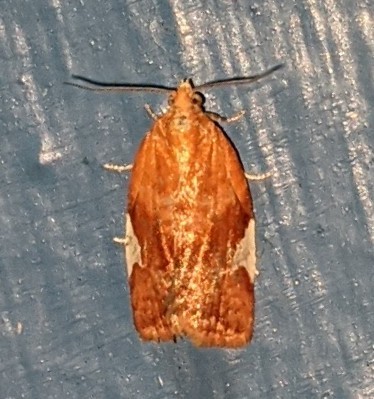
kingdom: Animalia
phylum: Arthropoda
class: Insecta
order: Lepidoptera
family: Tortricidae
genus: Clepsis
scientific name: Clepsis persicana
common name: White triangle tortrix
